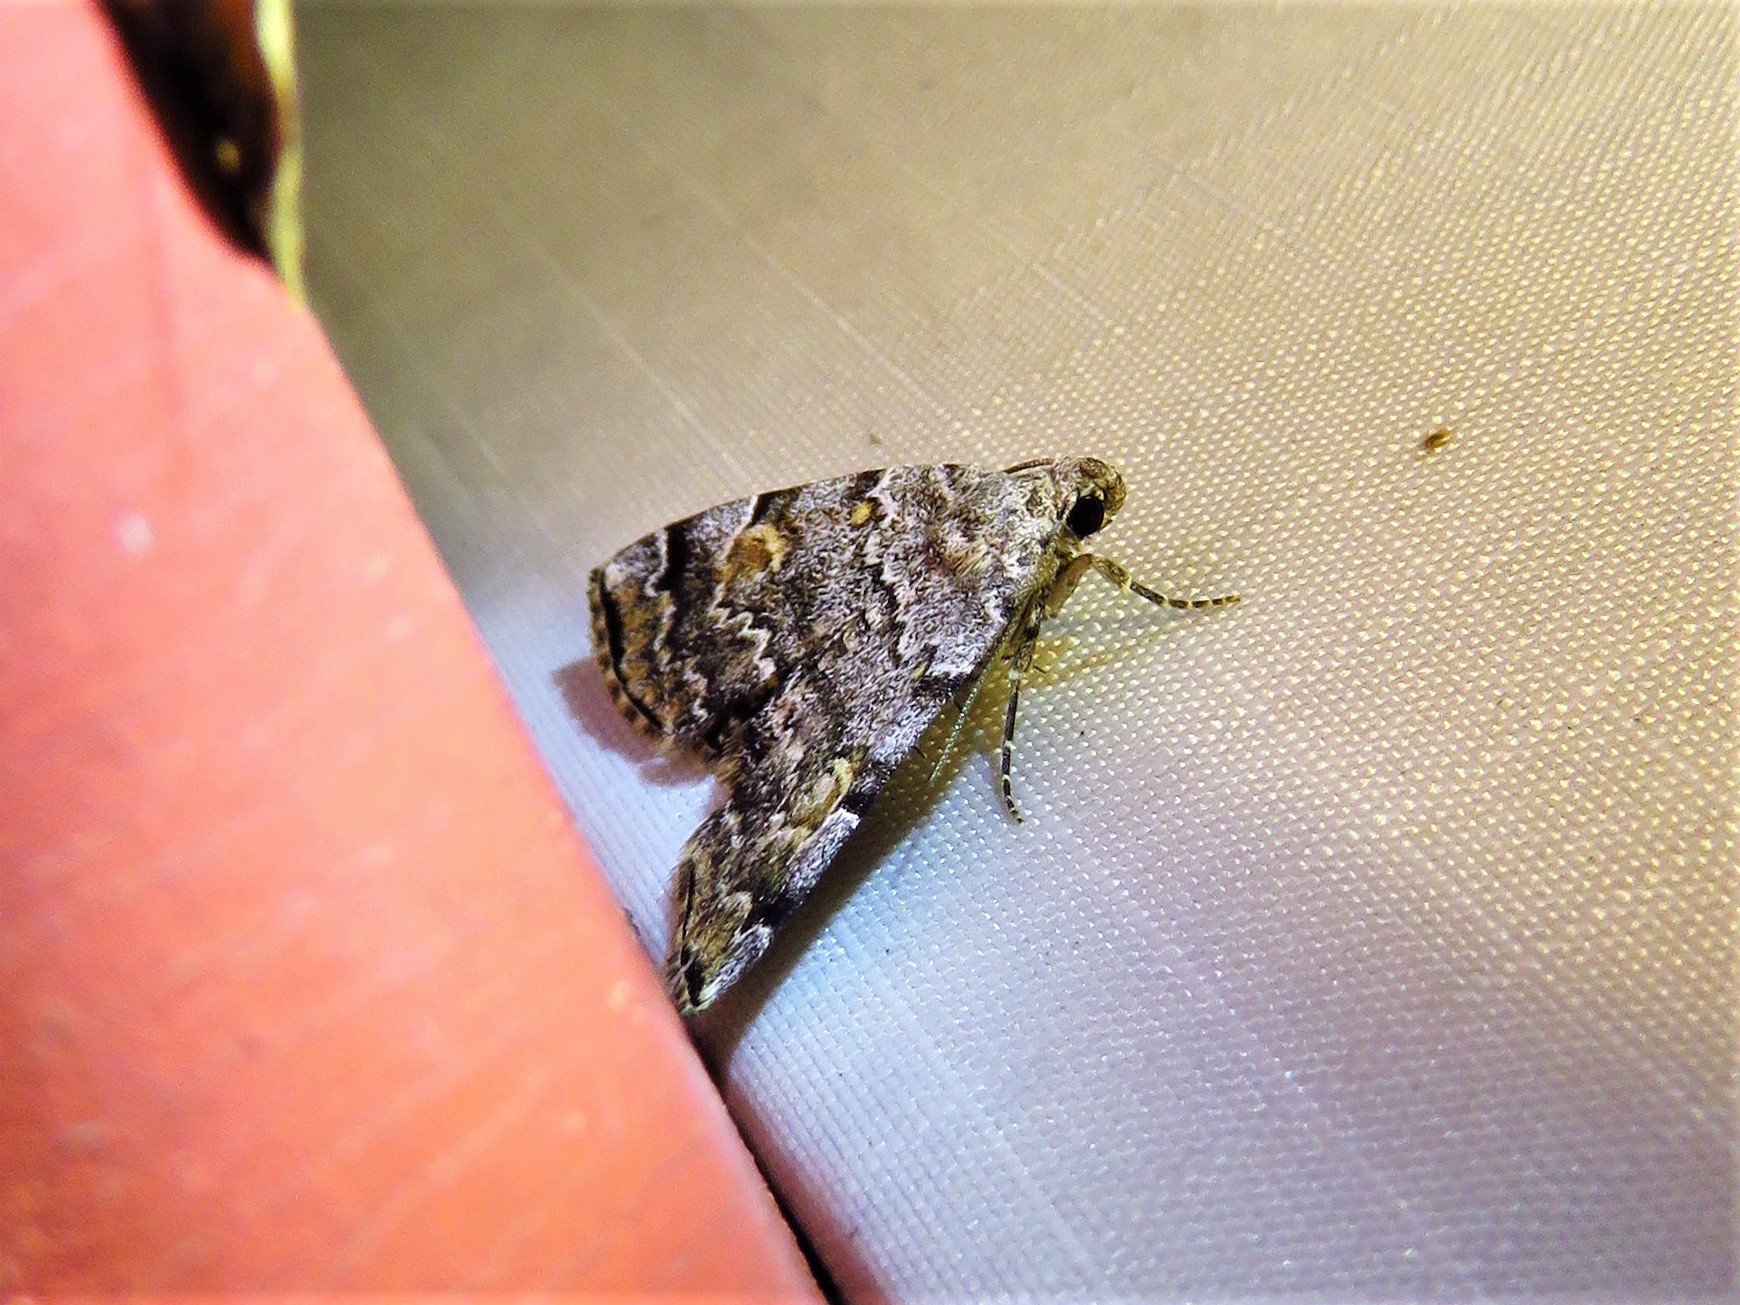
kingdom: Animalia
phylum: Arthropoda
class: Insecta
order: Lepidoptera
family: Erebidae
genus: Idia
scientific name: Idia americalis
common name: American idia moth
